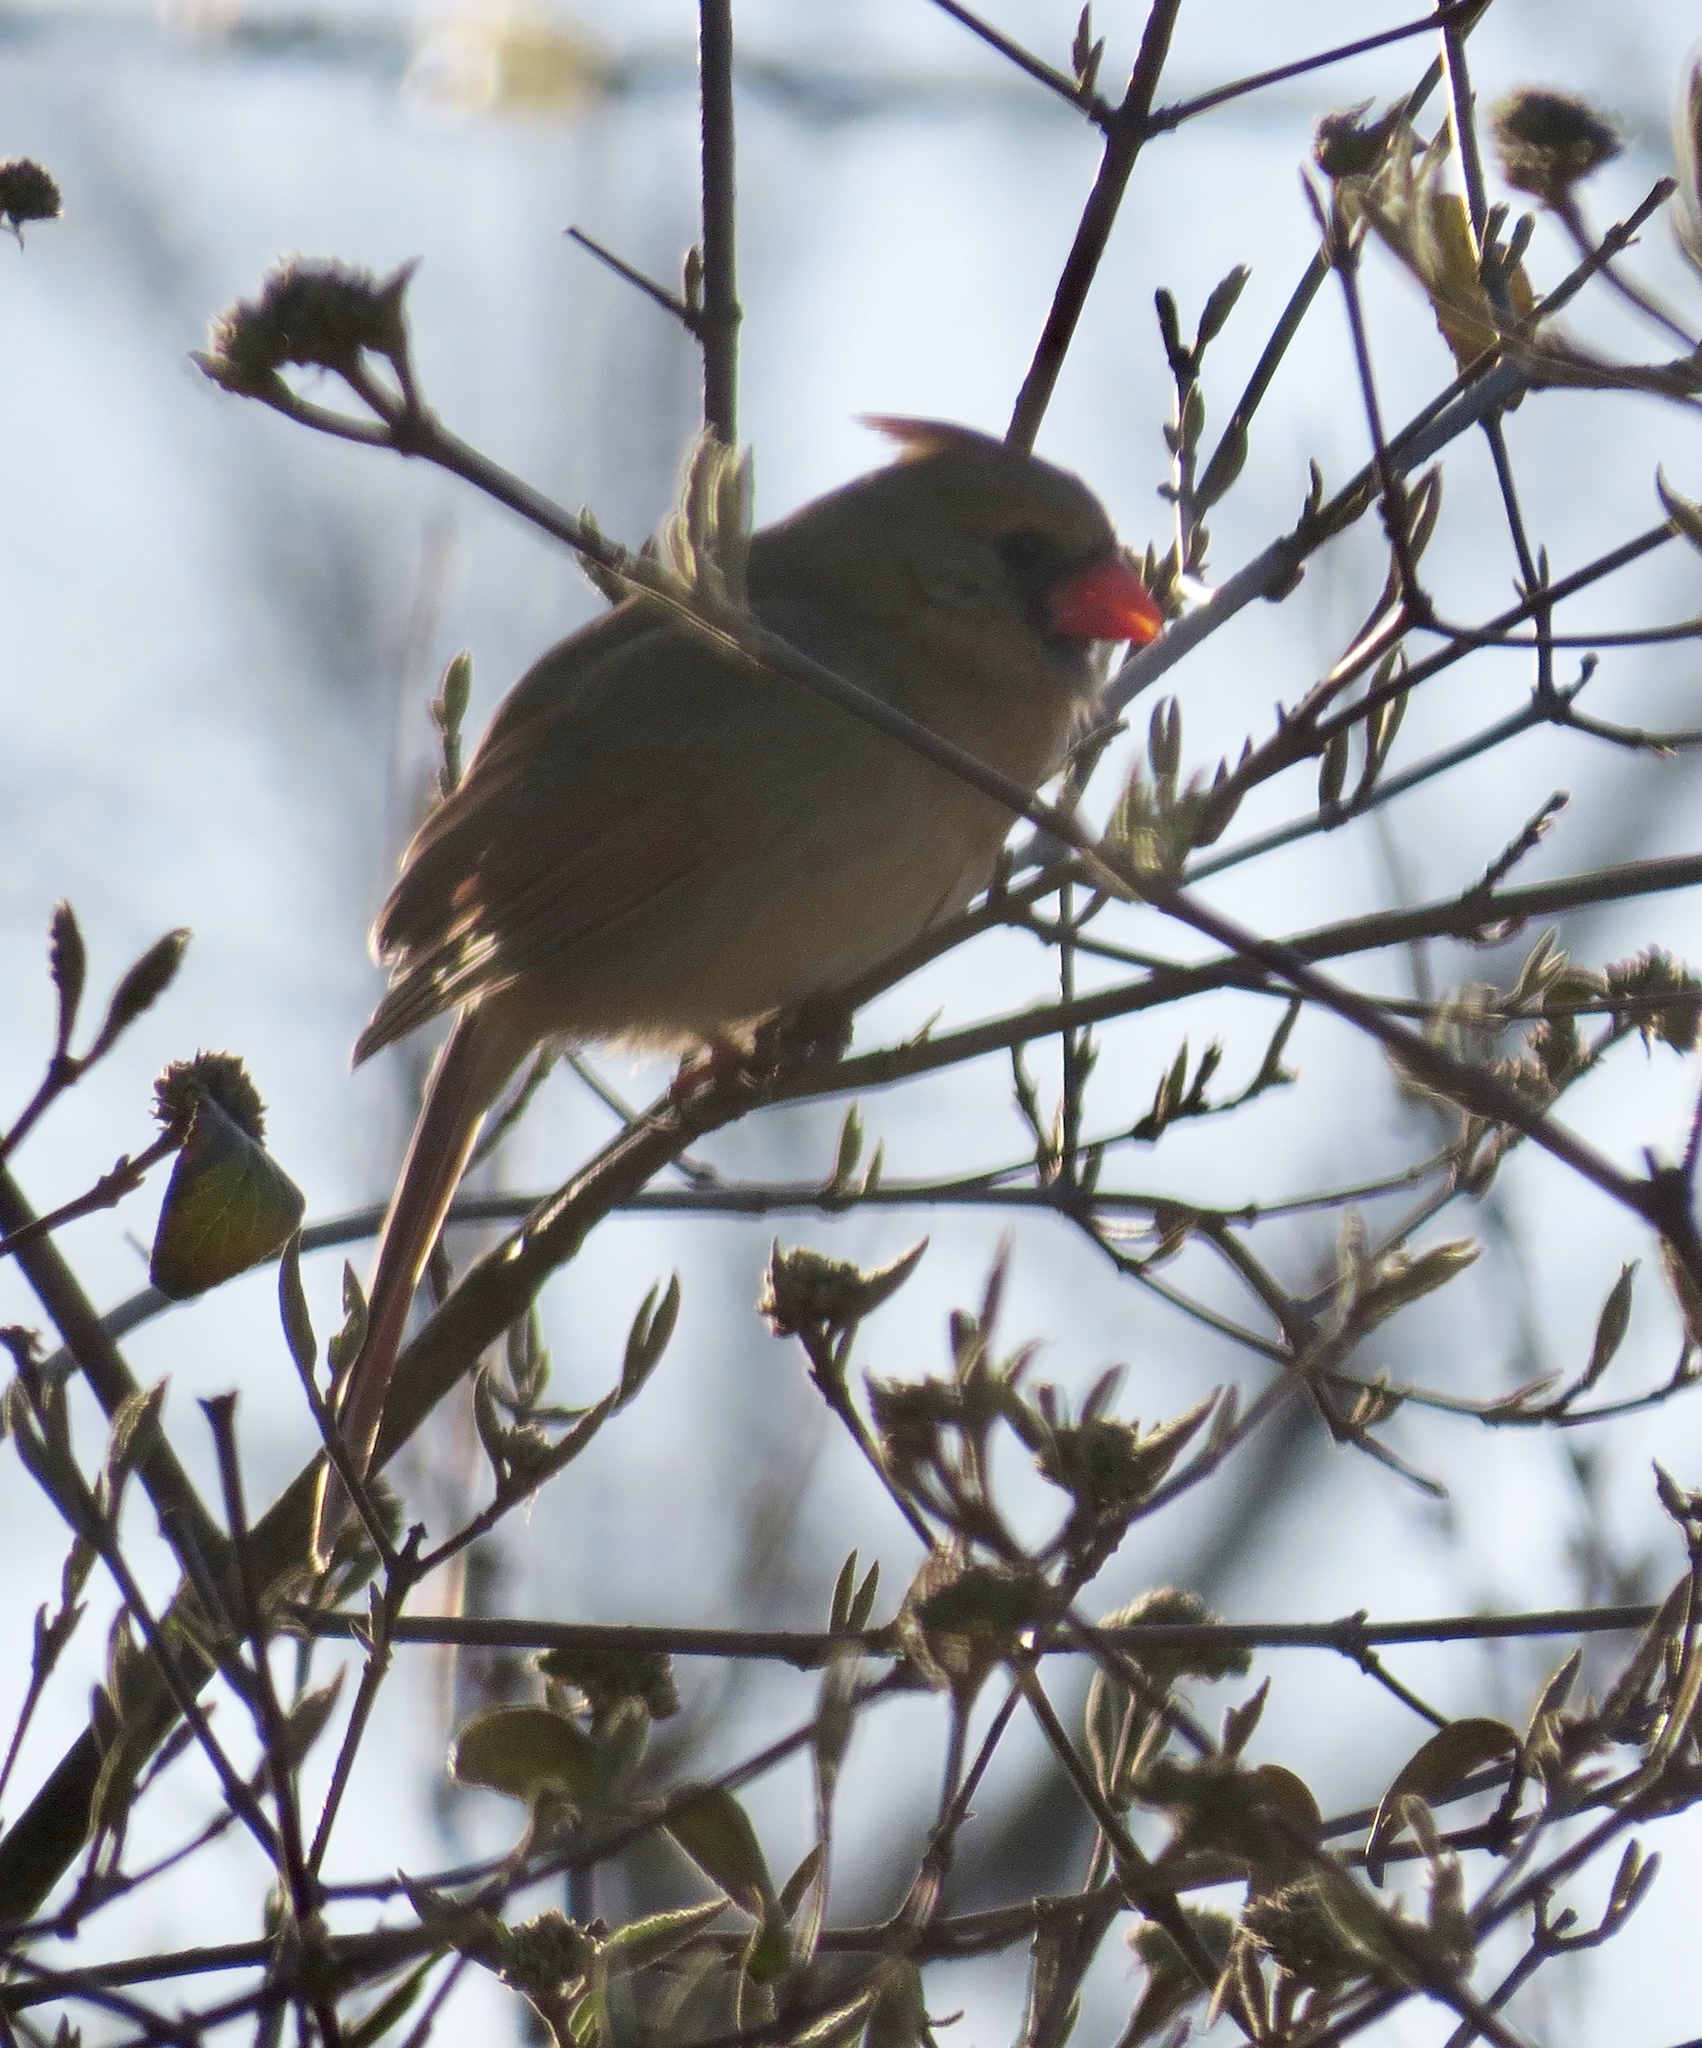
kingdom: Animalia
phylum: Chordata
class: Aves
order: Passeriformes
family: Cardinalidae
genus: Cardinalis
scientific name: Cardinalis cardinalis
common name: Northern cardinal
